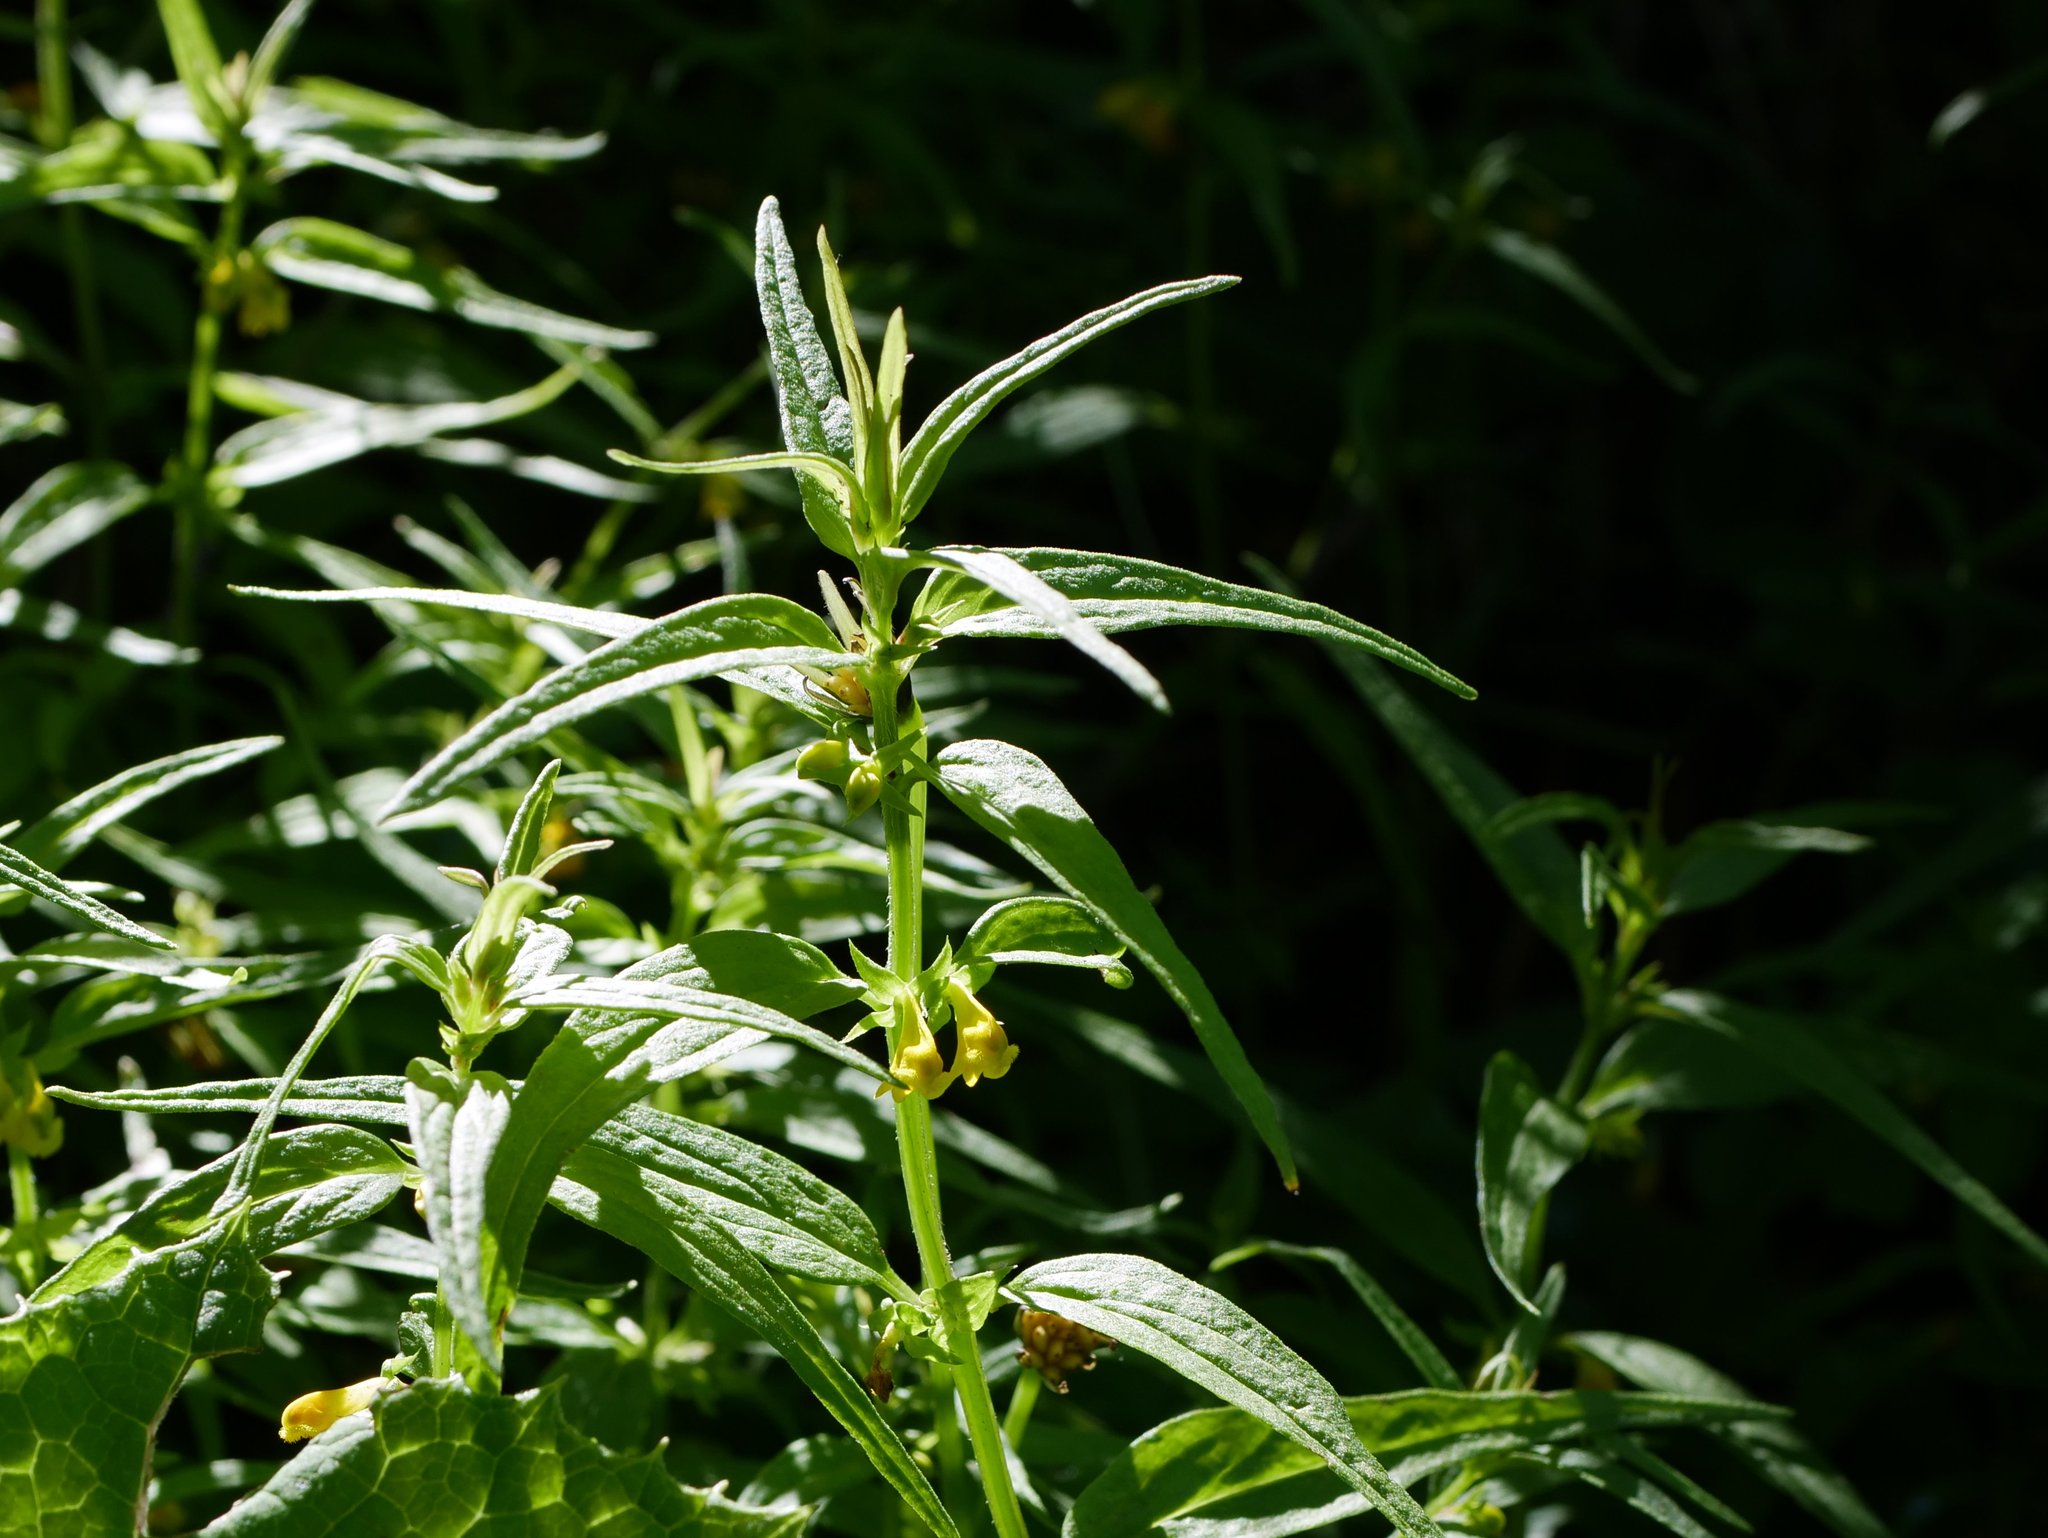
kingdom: Plantae
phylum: Tracheophyta
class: Magnoliopsida
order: Lamiales
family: Orobanchaceae
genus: Melampyrum
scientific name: Melampyrum sylvaticum
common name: Small cow-wheat
